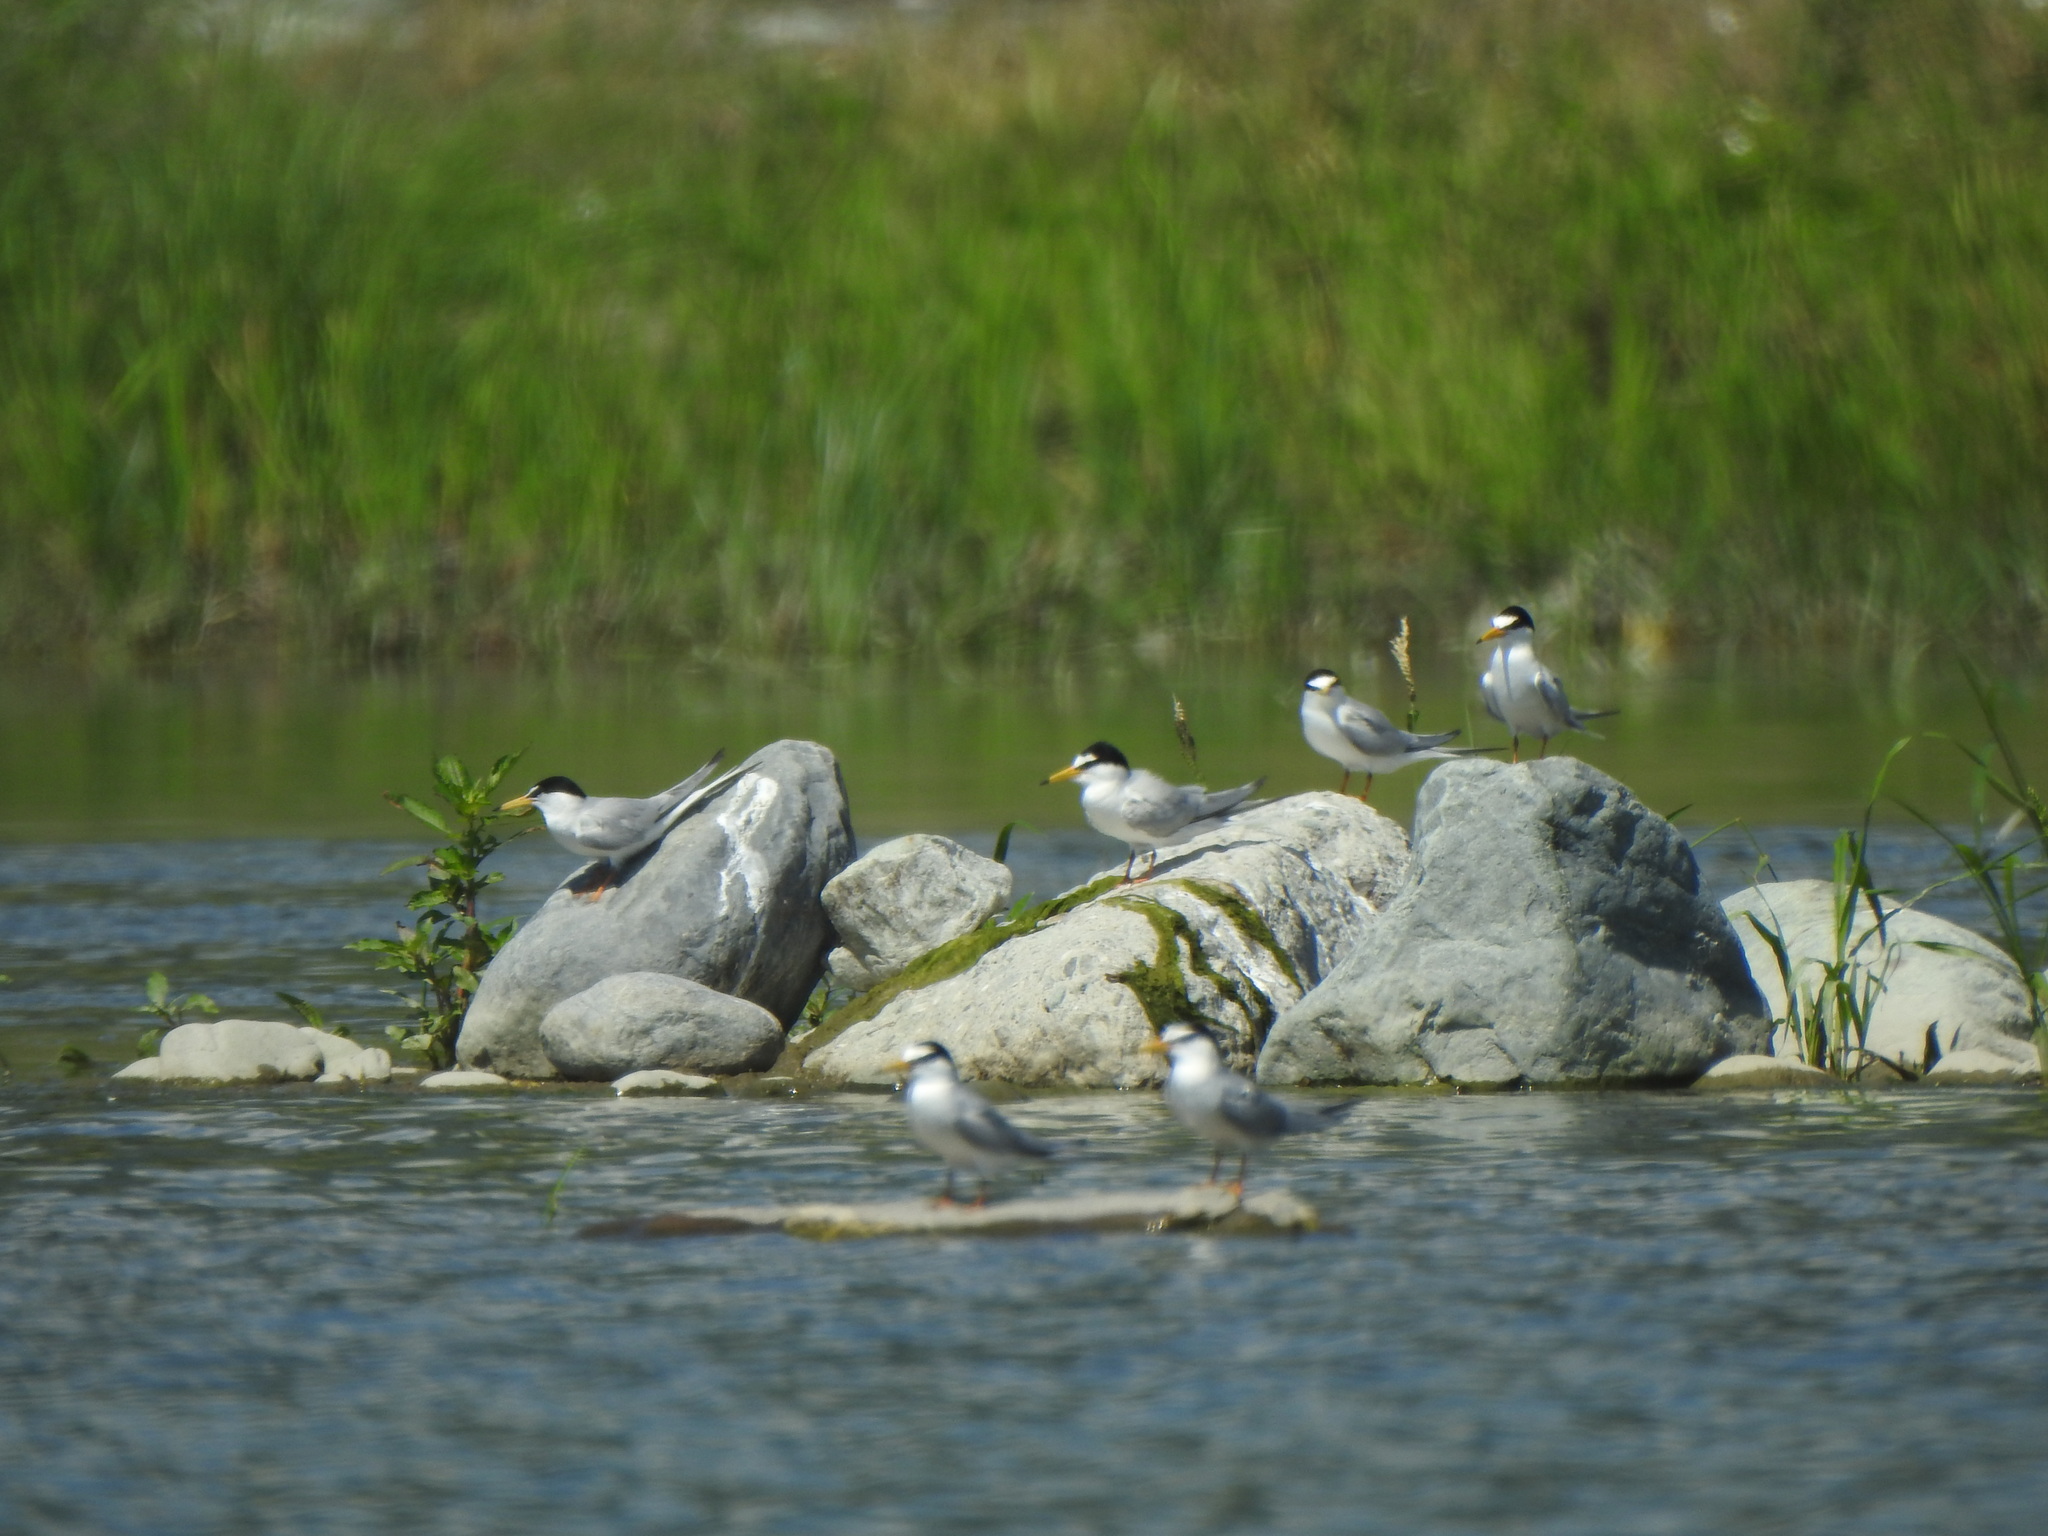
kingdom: Animalia
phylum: Chordata
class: Aves
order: Charadriiformes
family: Laridae
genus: Sternula
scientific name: Sternula albifrons
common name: Little tern
